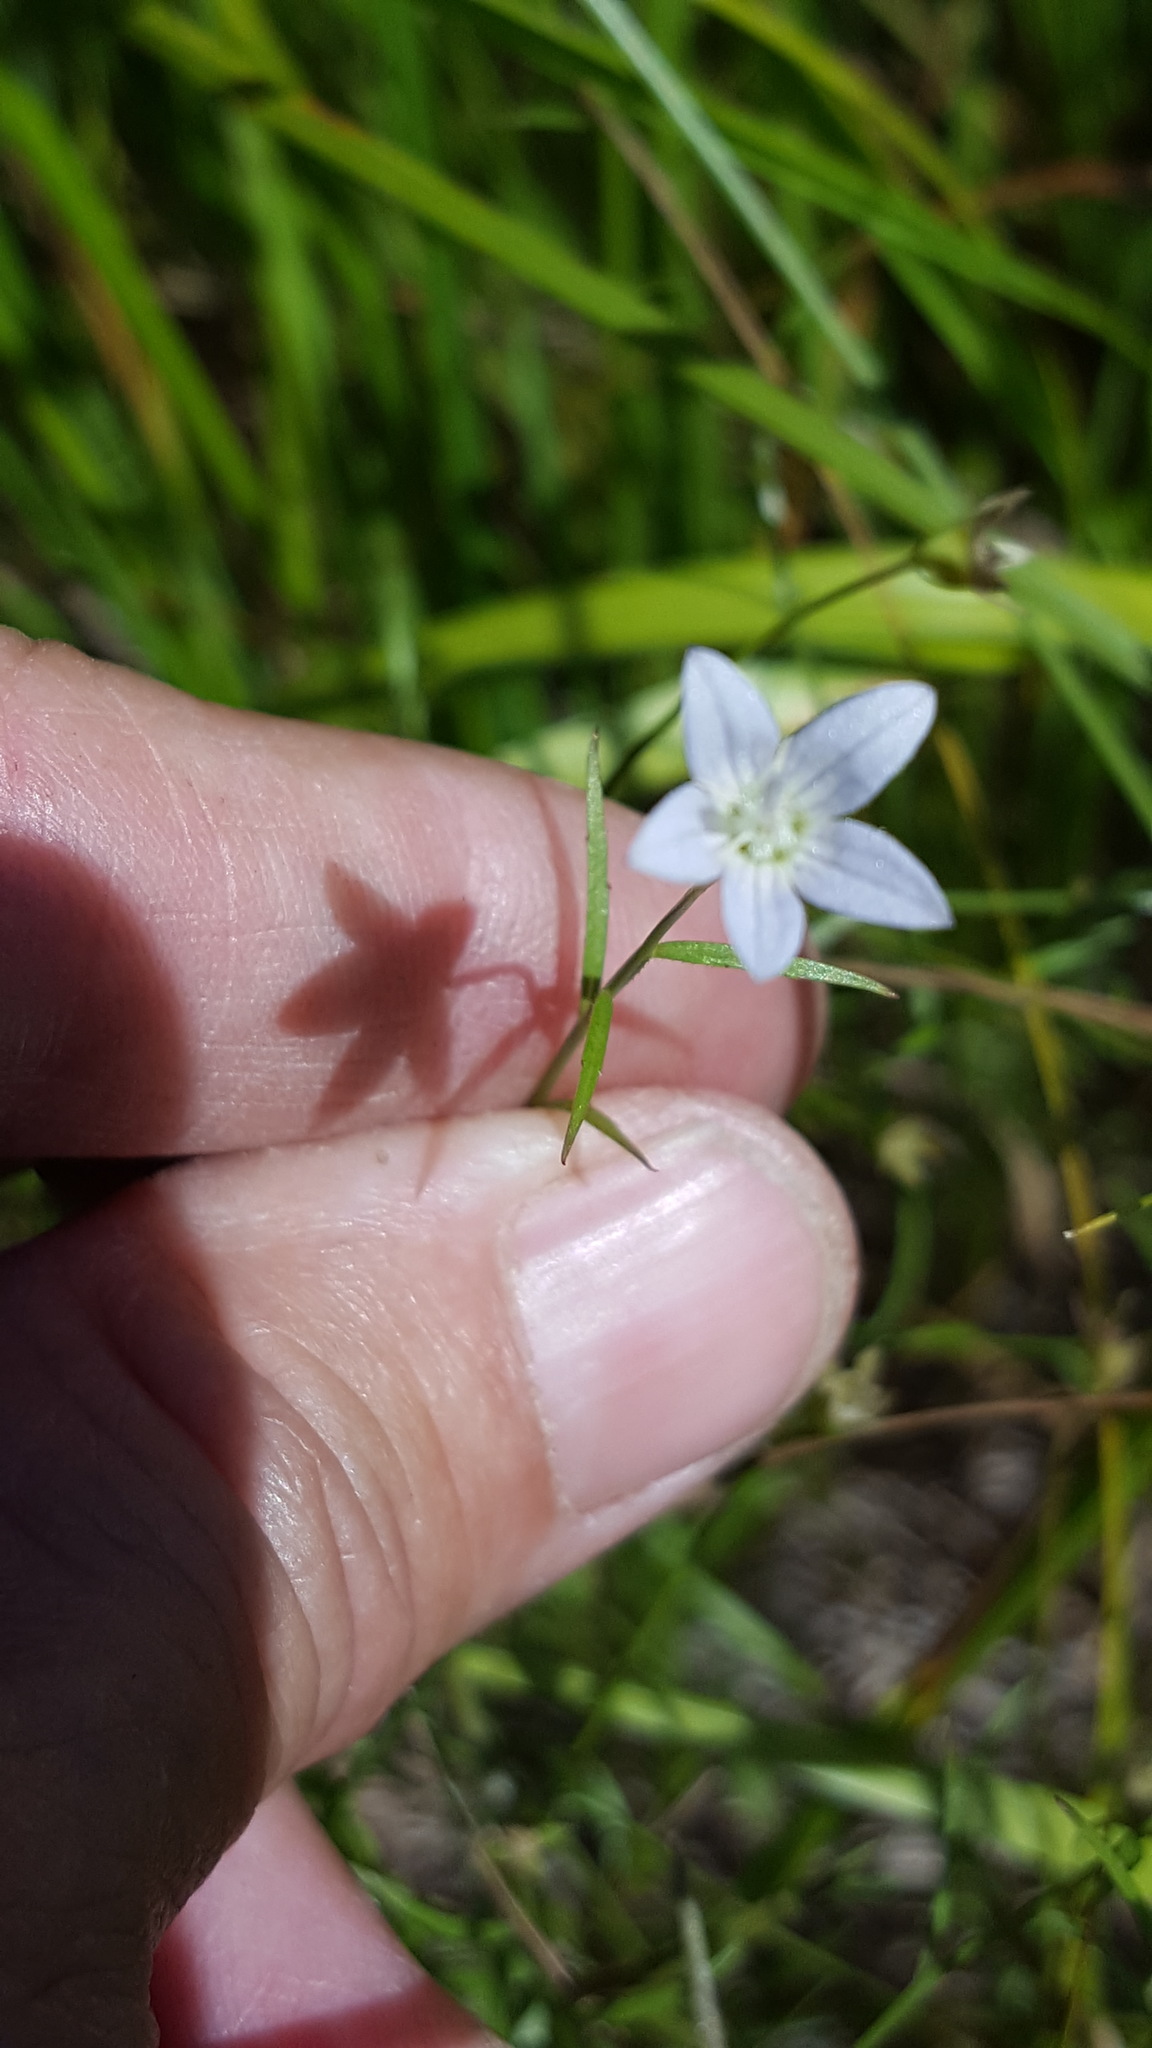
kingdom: Plantae
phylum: Tracheophyta
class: Magnoliopsida
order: Asterales
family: Campanulaceae
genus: Palustricodon
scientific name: Palustricodon aparinoides
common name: Bedstraw bellflower
